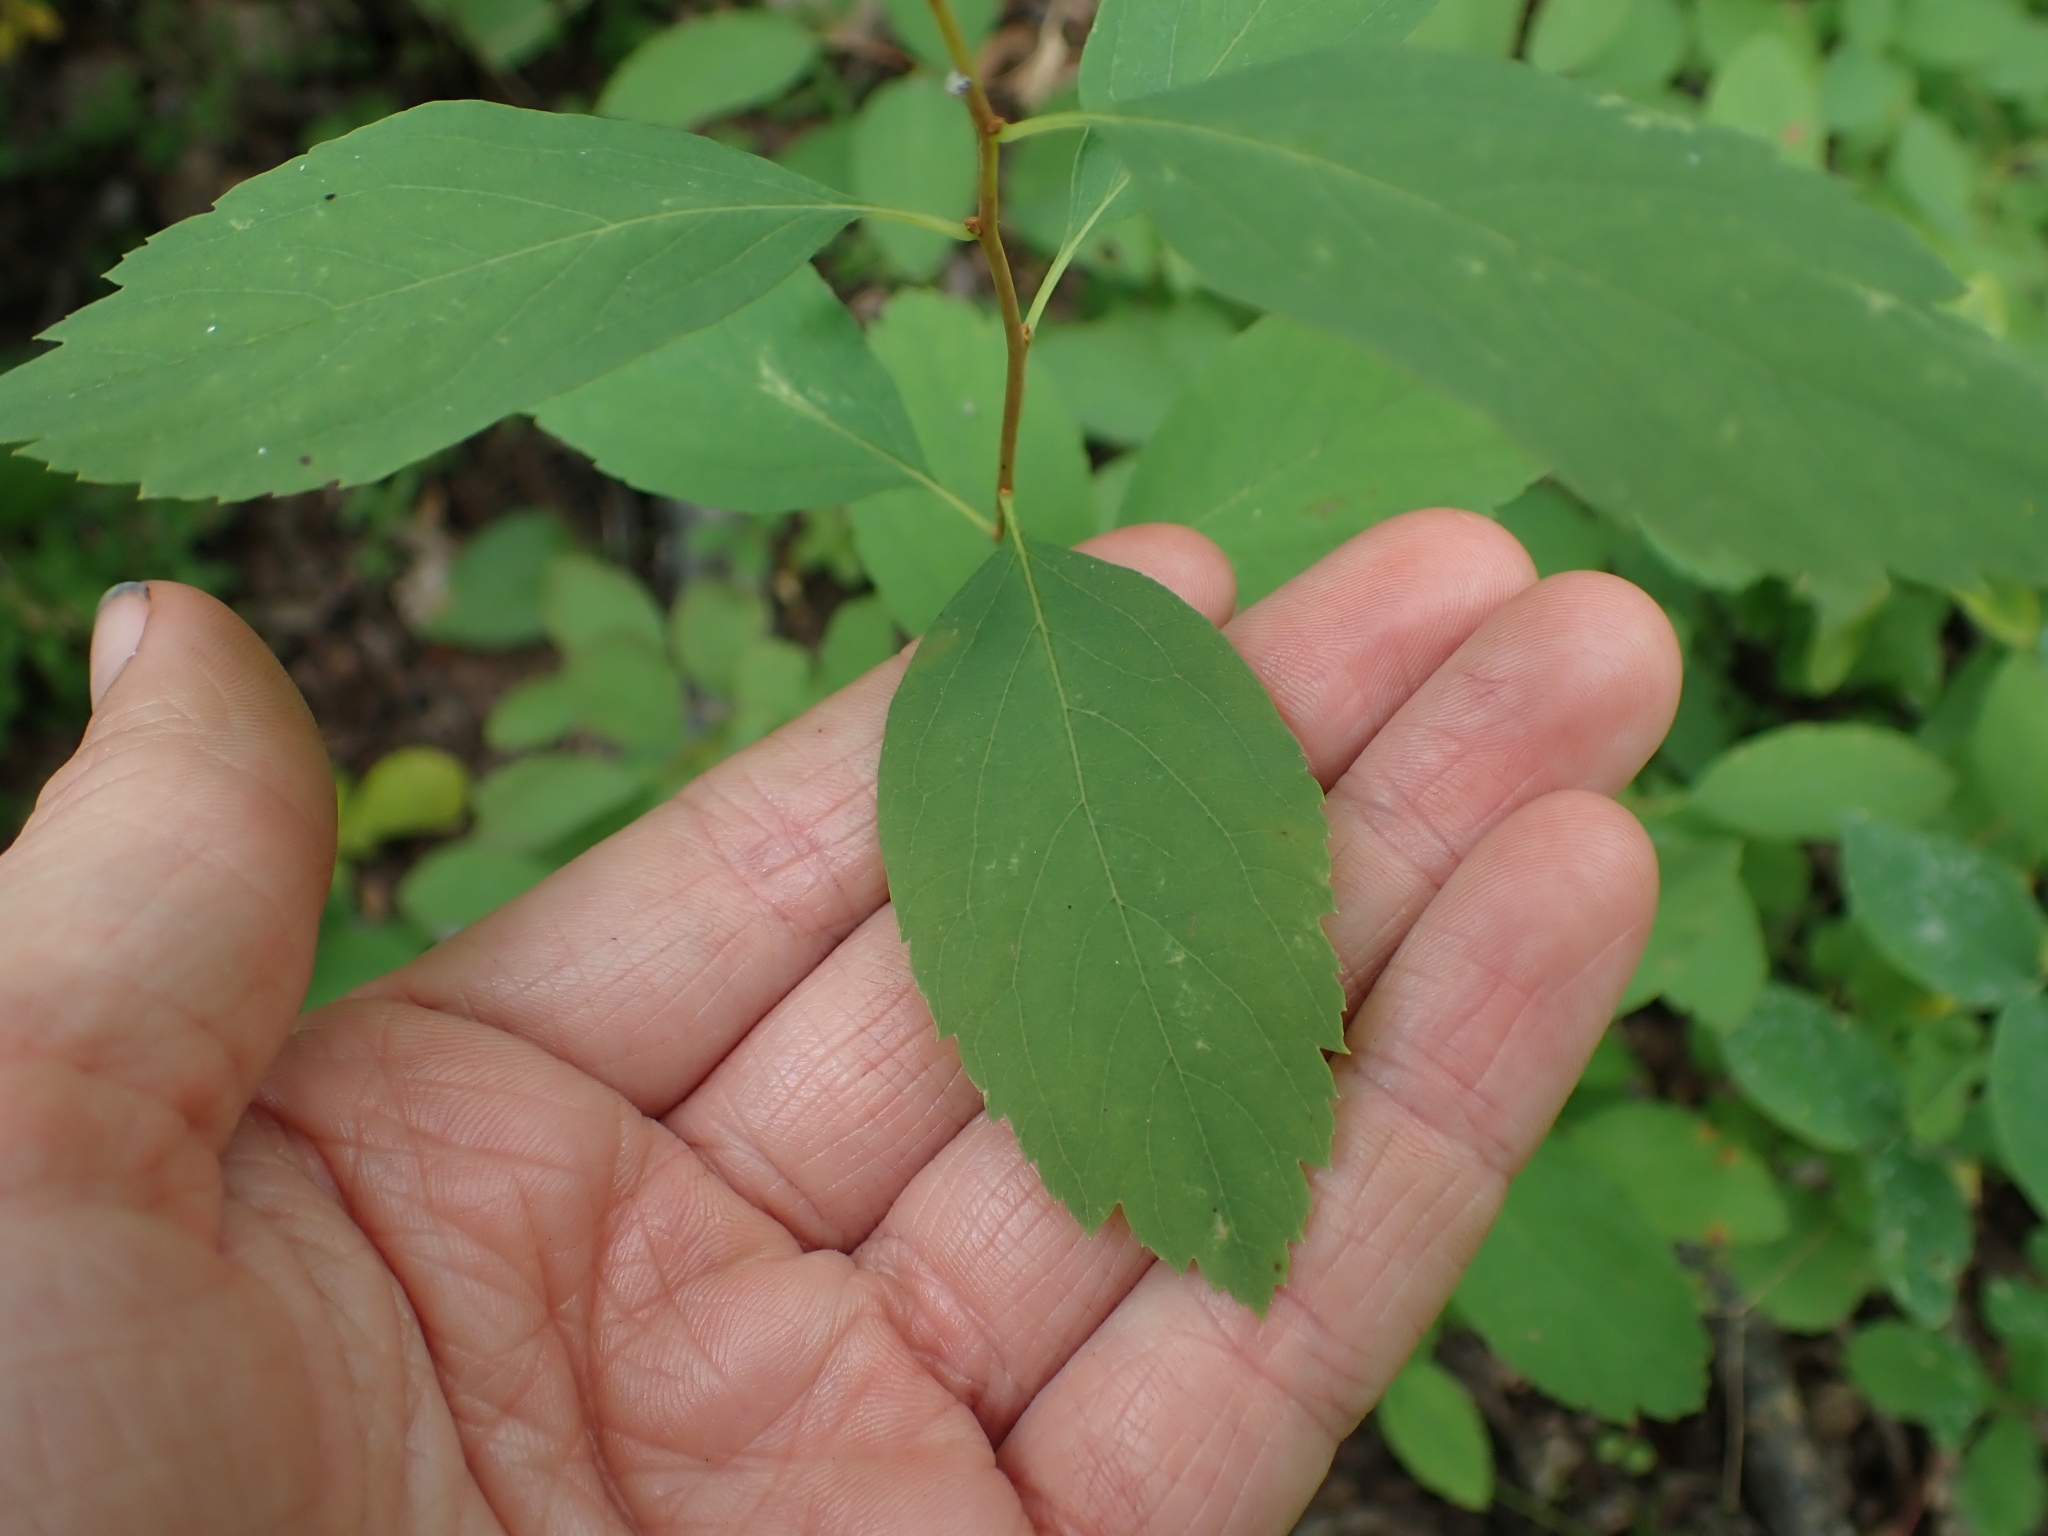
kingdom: Plantae
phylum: Tracheophyta
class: Magnoliopsida
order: Rosales
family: Rosaceae
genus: Spiraea
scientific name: Spiraea lucida
